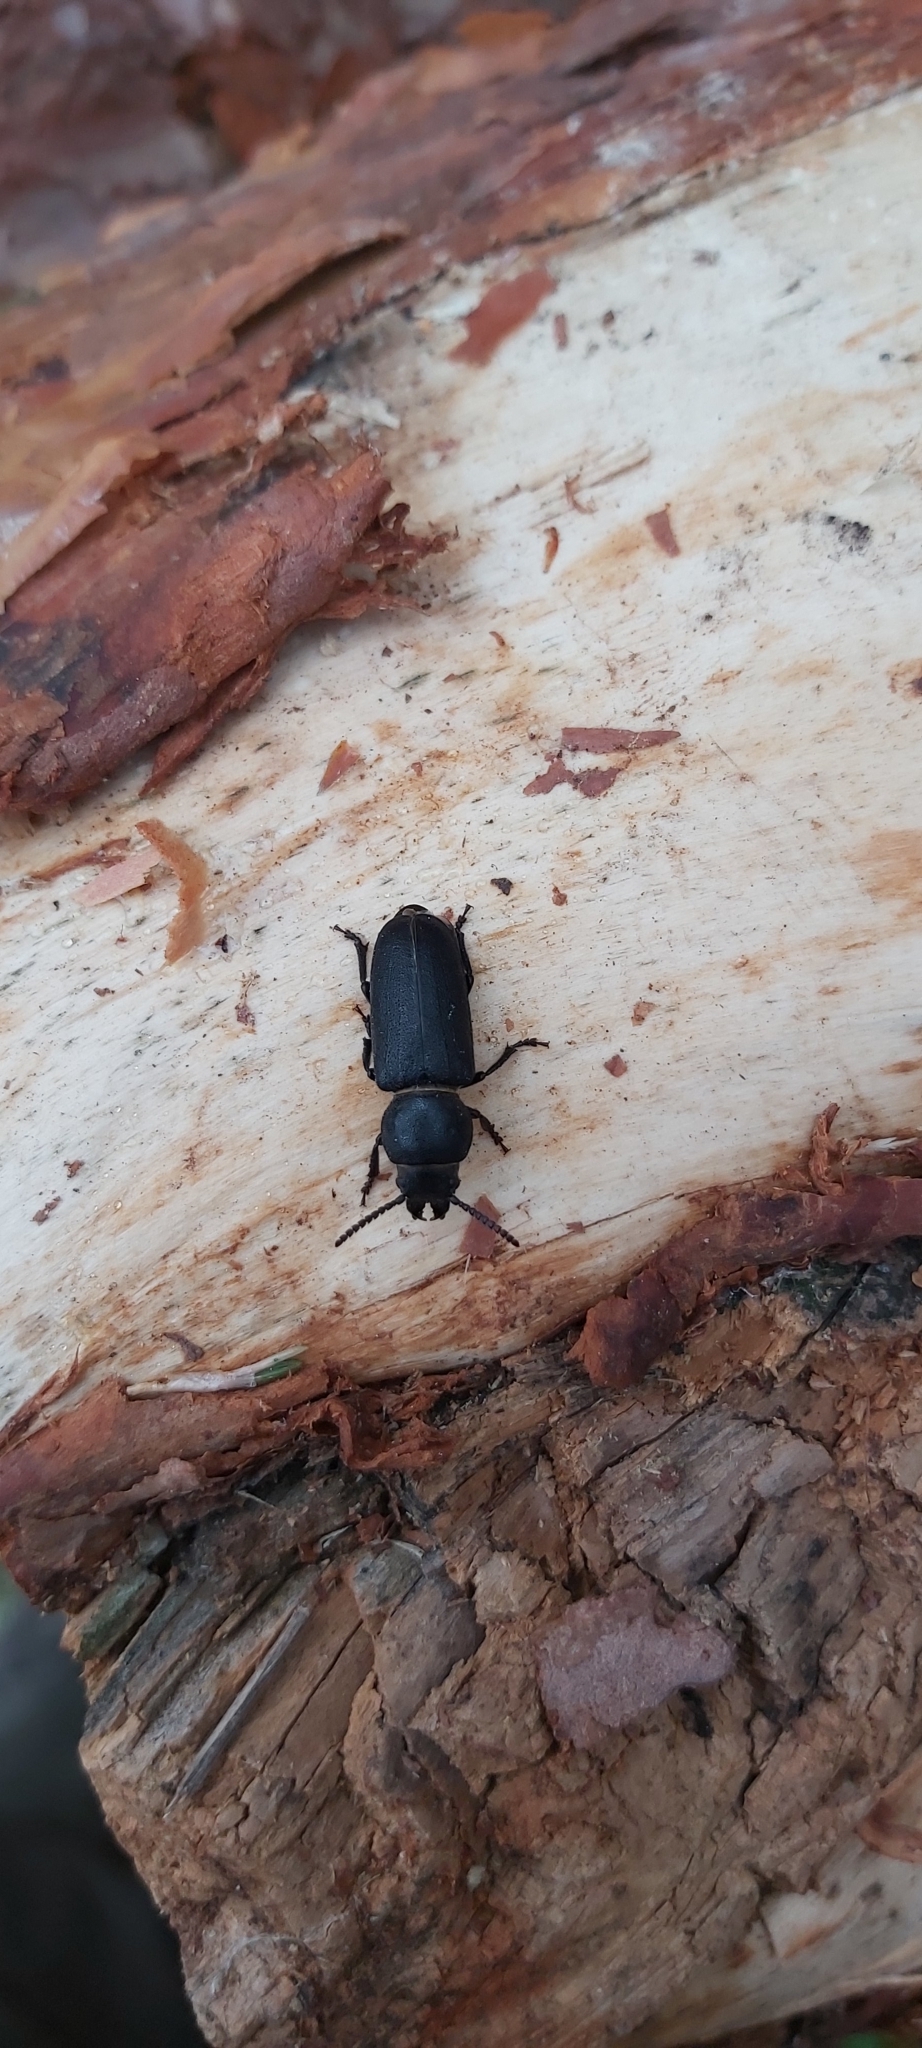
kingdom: Animalia
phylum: Arthropoda
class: Insecta
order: Coleoptera
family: Cerambycidae
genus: Spondylis
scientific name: Spondylis buprestoides
